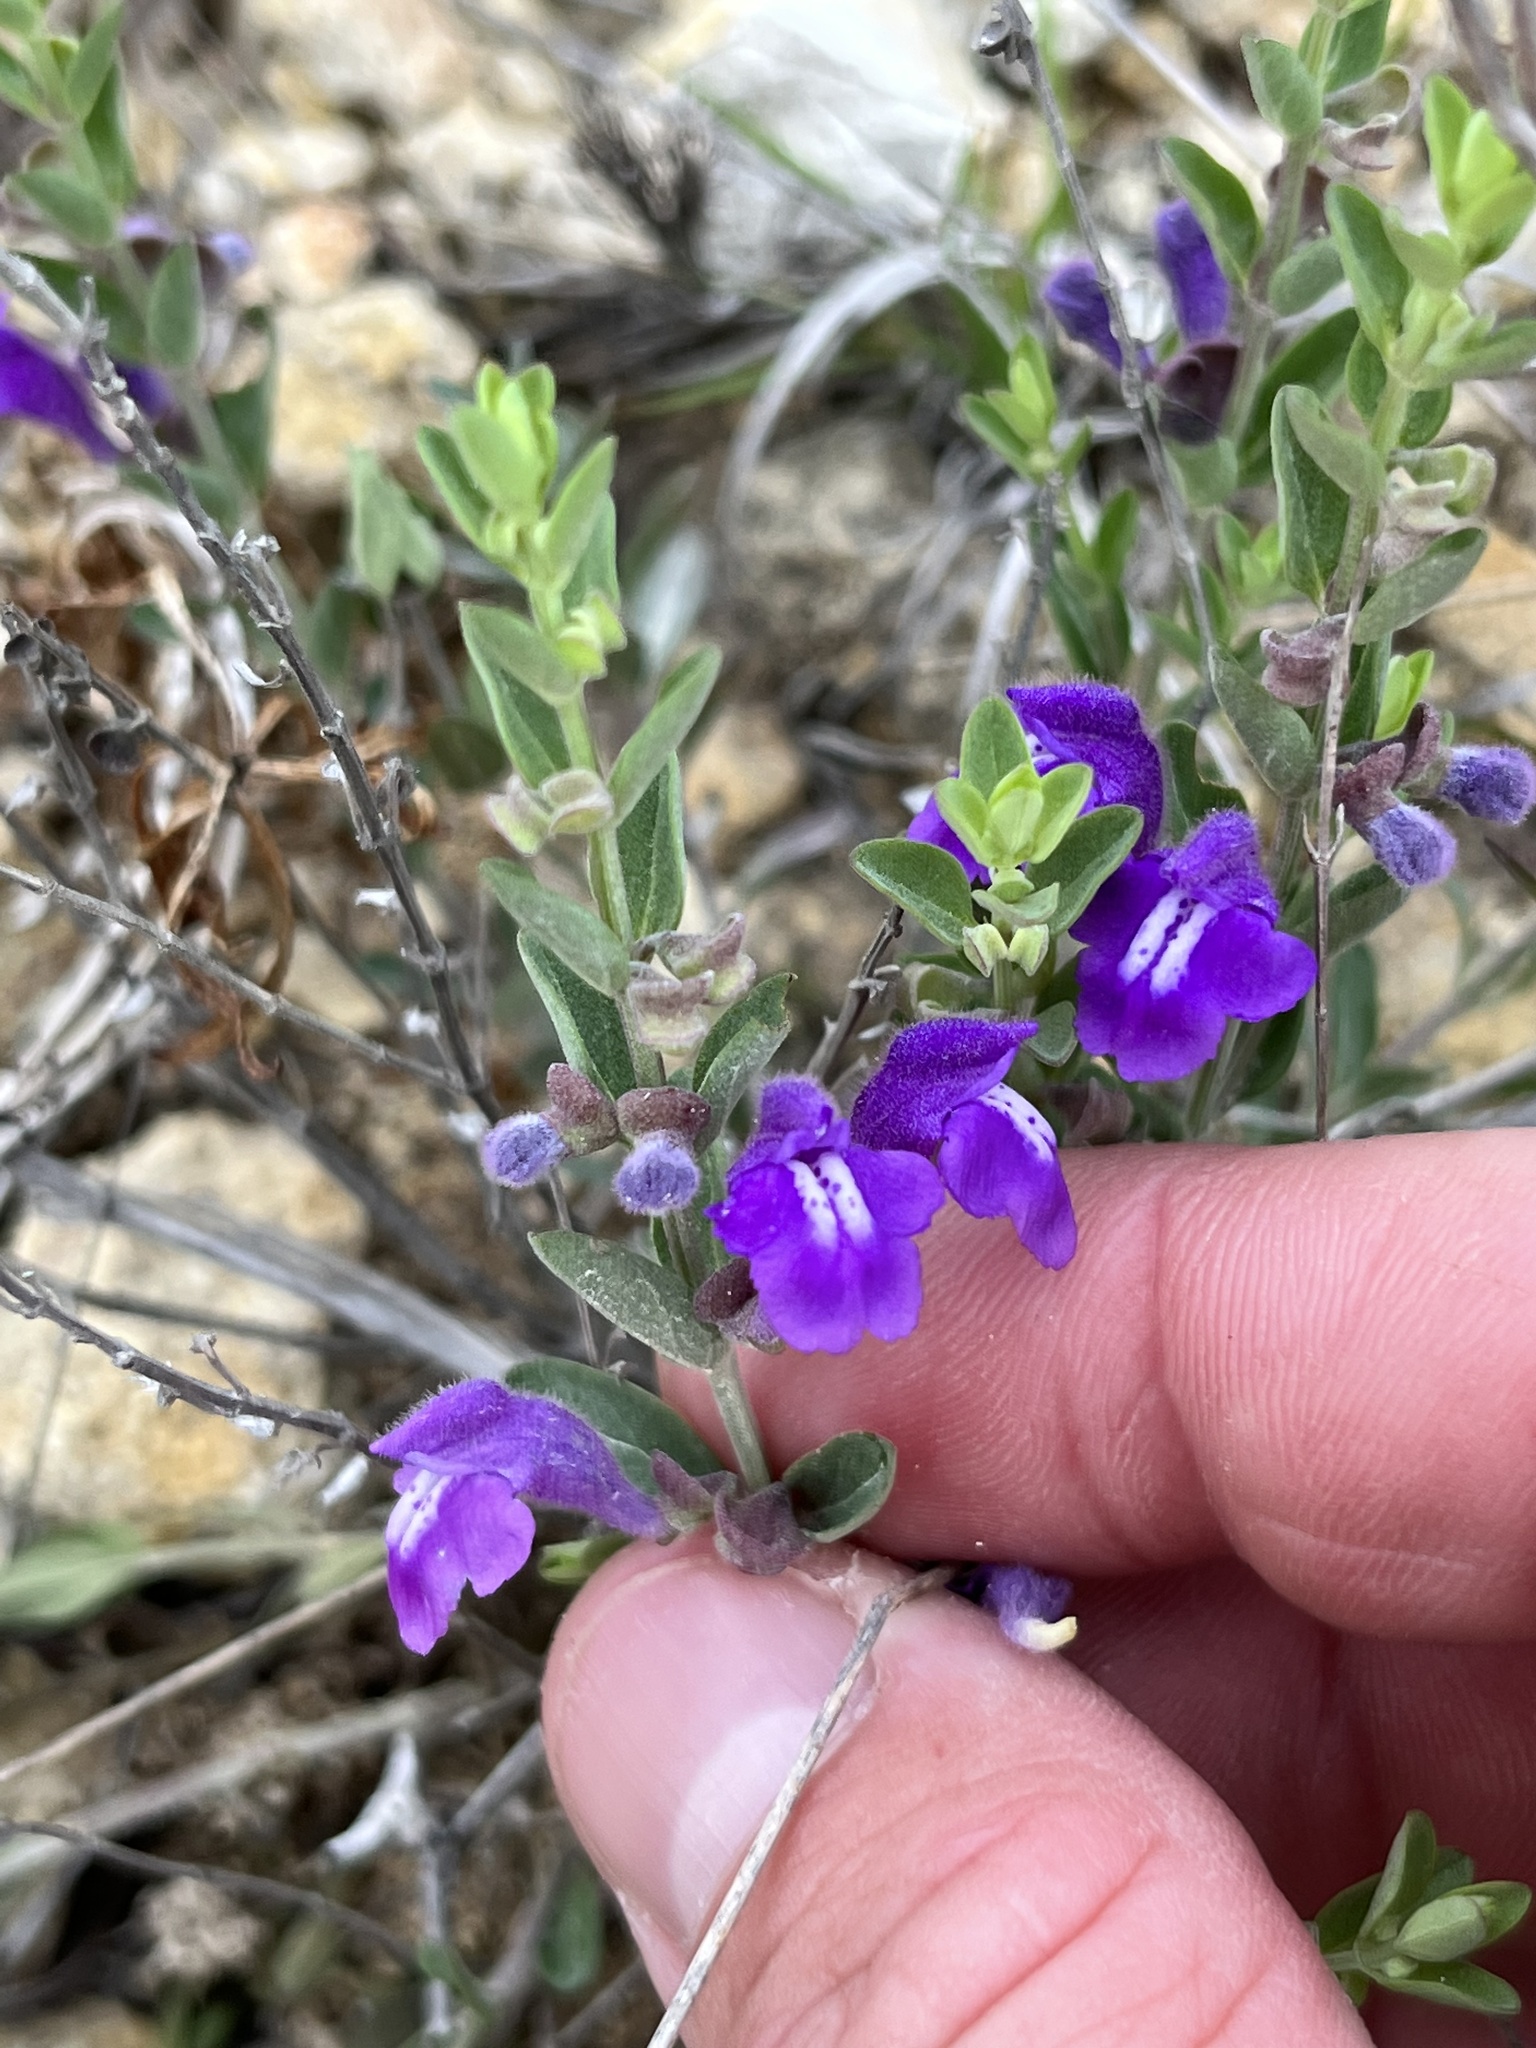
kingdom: Plantae
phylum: Tracheophyta
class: Magnoliopsida
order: Lamiales
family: Lamiaceae
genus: Scutellaria
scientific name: Scutellaria wrightii
